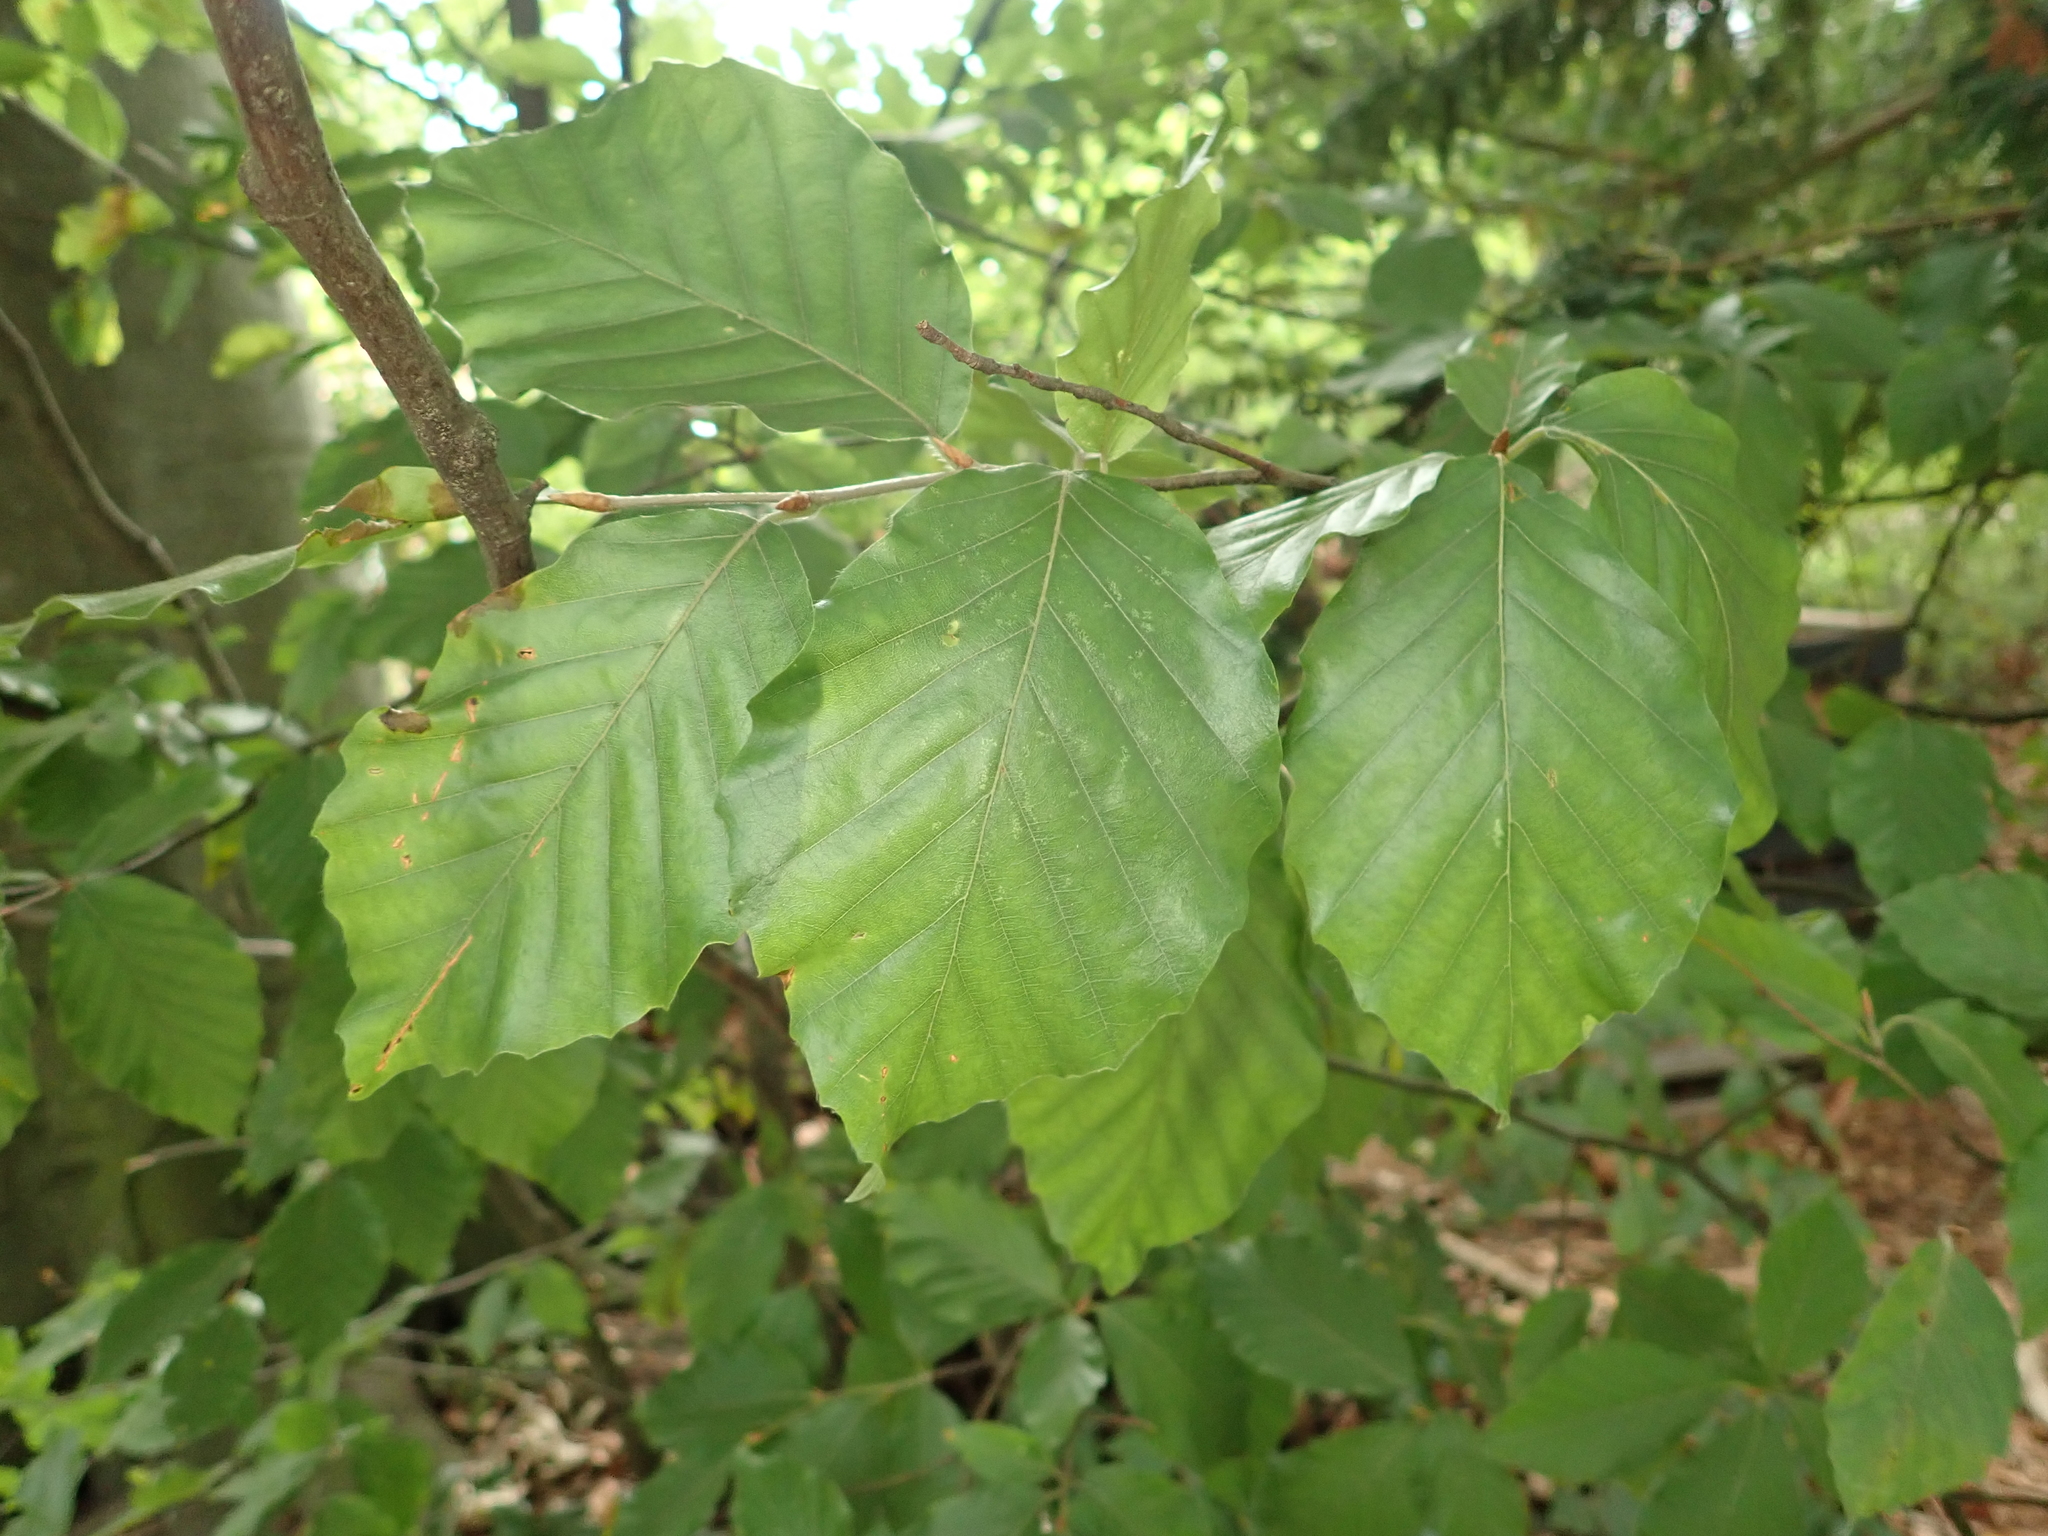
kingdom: Plantae
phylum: Tracheophyta
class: Magnoliopsida
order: Fagales
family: Fagaceae
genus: Fagus
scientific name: Fagus sylvatica
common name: Beech
